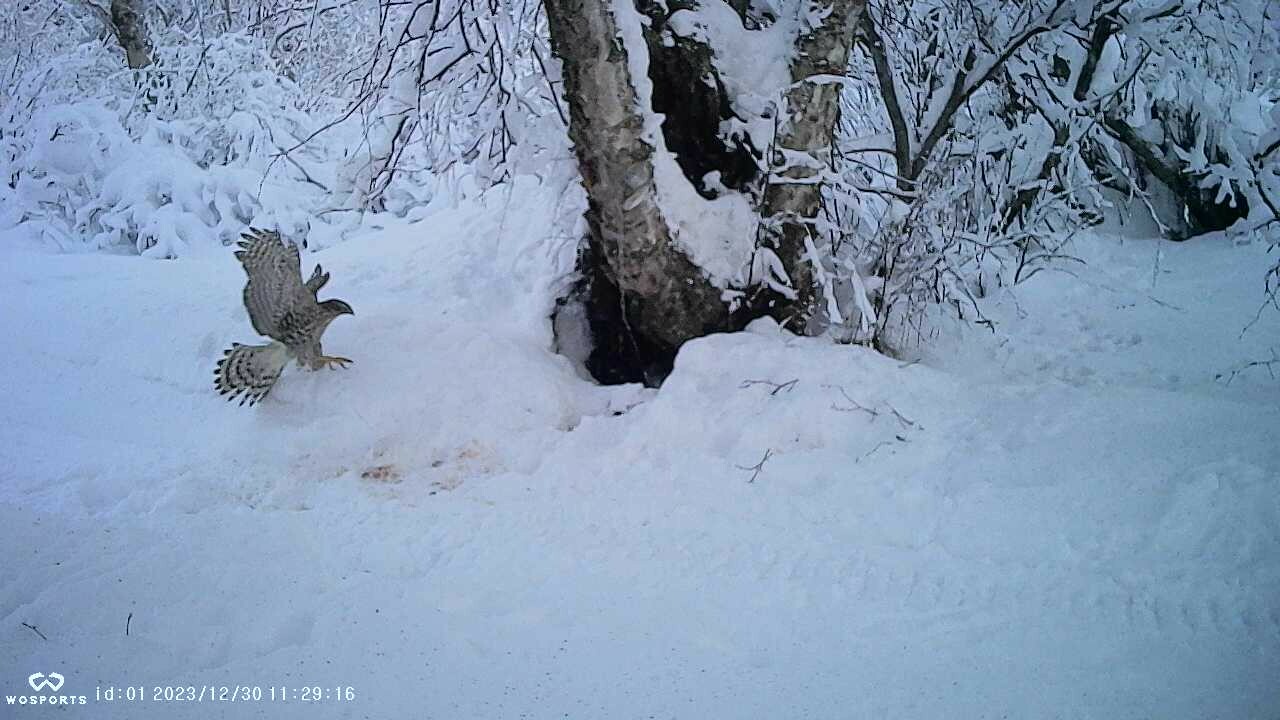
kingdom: Animalia
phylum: Chordata
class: Aves
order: Accipitriformes
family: Accipitridae
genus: Accipiter
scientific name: Accipiter gentilis
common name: Northern goshawk
